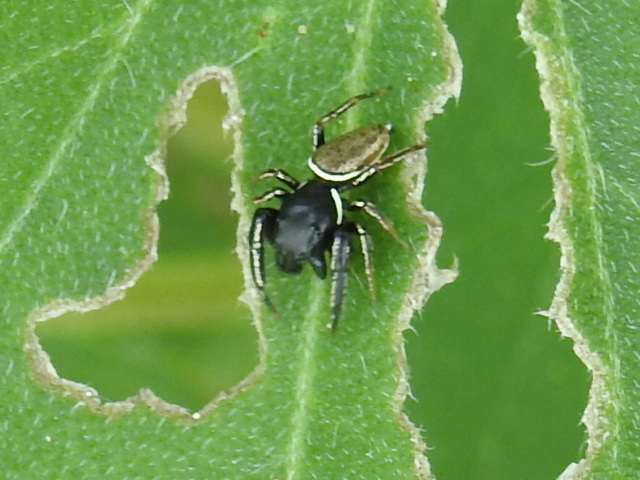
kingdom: Animalia
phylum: Arthropoda
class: Arachnida
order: Araneae
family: Salticidae
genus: Sassacus
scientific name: Sassacus vitis
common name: Jumping spiders
